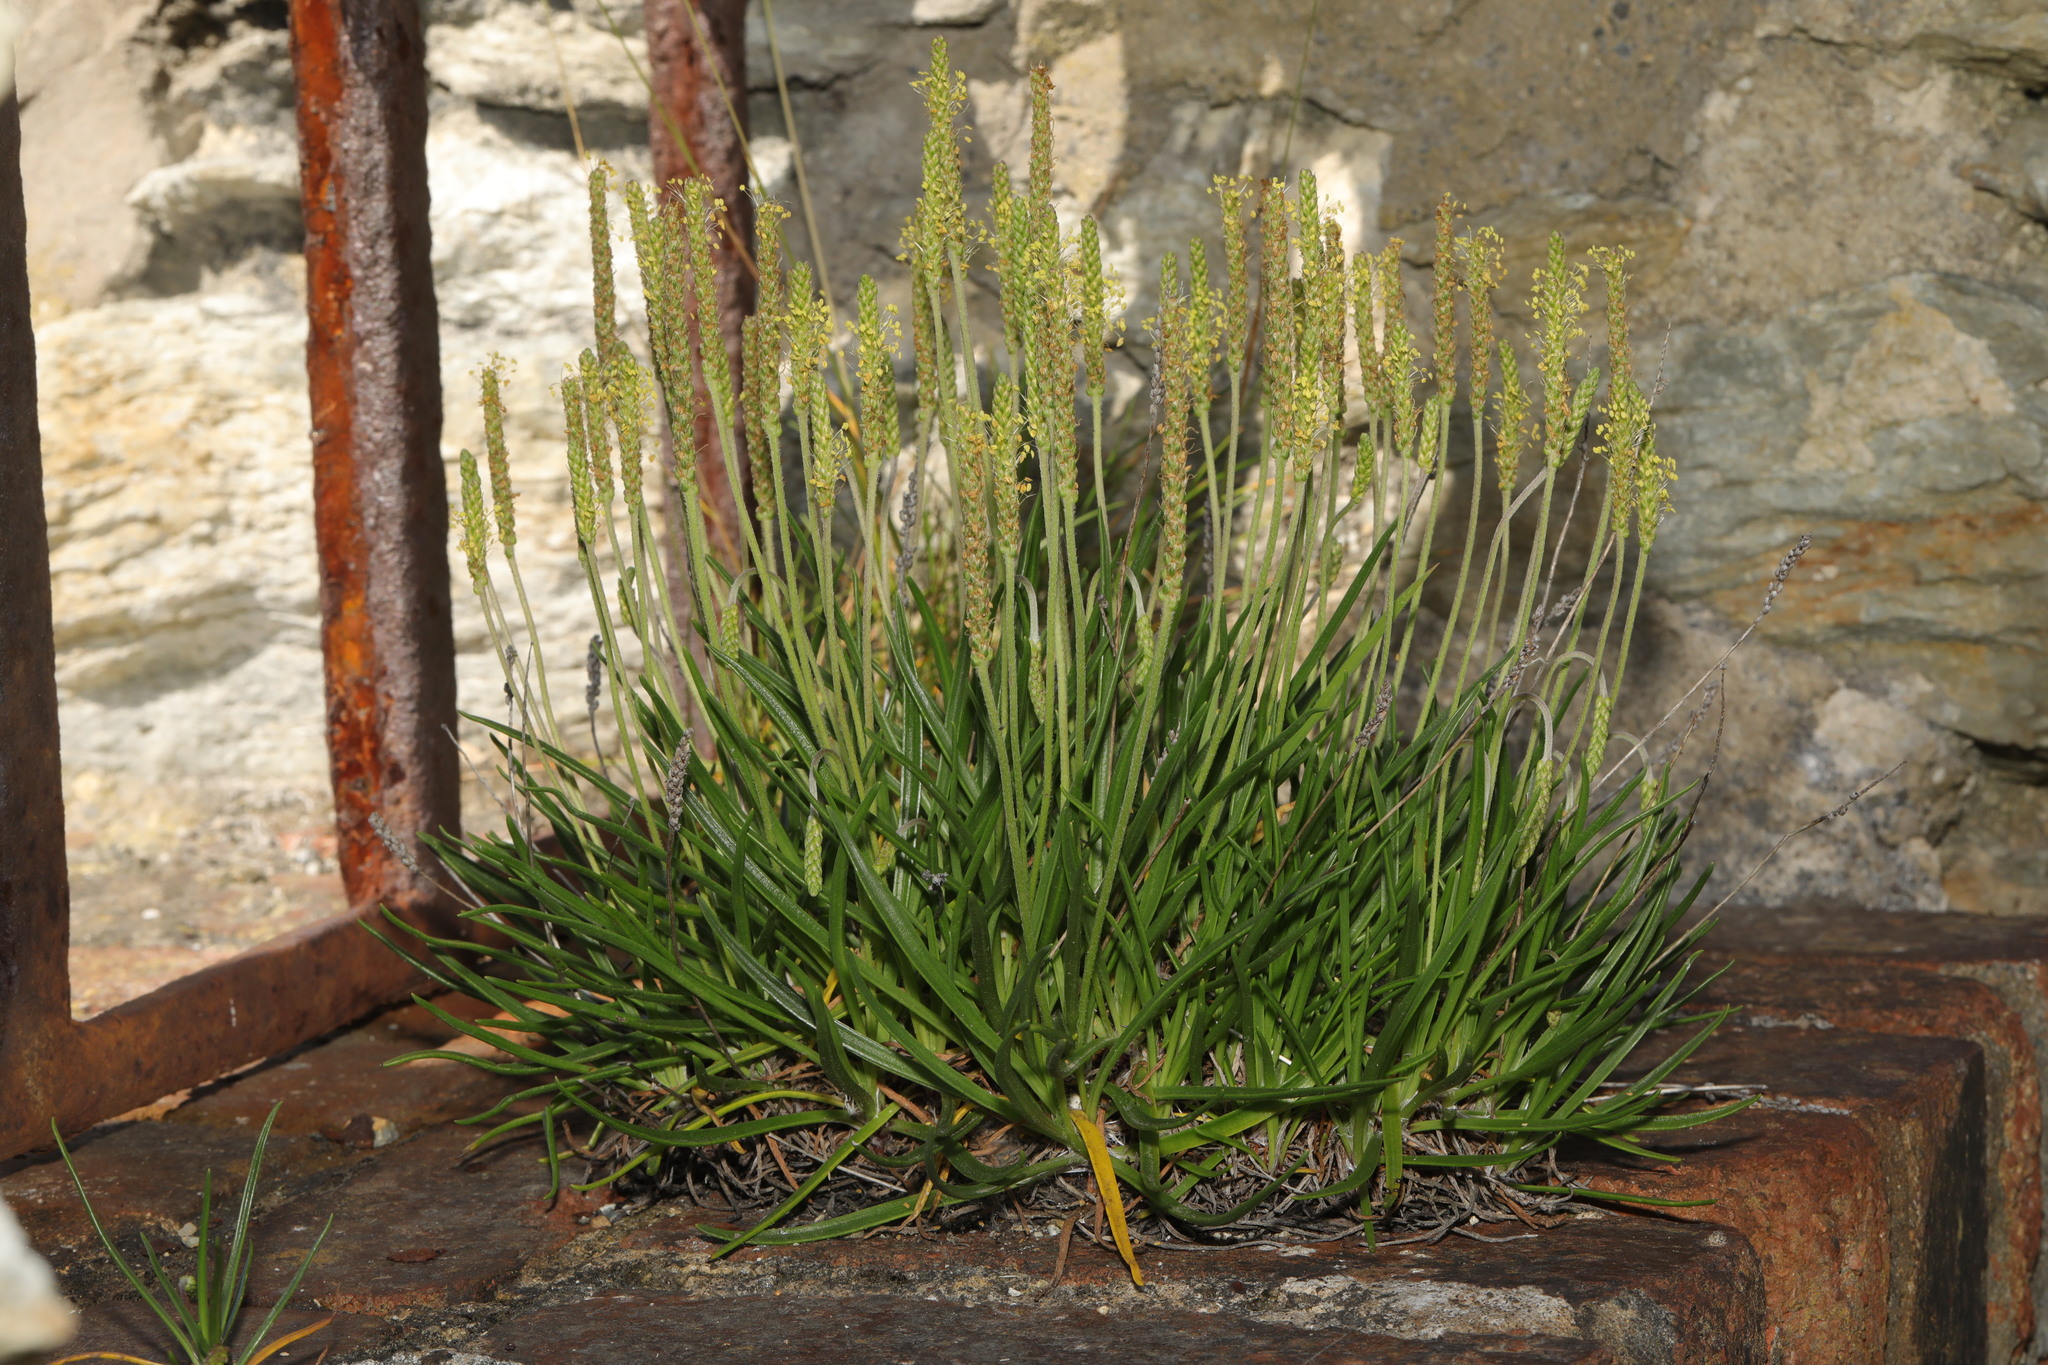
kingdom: Plantae
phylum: Tracheophyta
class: Magnoliopsida
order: Lamiales
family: Plantaginaceae
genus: Plantago
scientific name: Plantago maritima
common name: Sea plantain
